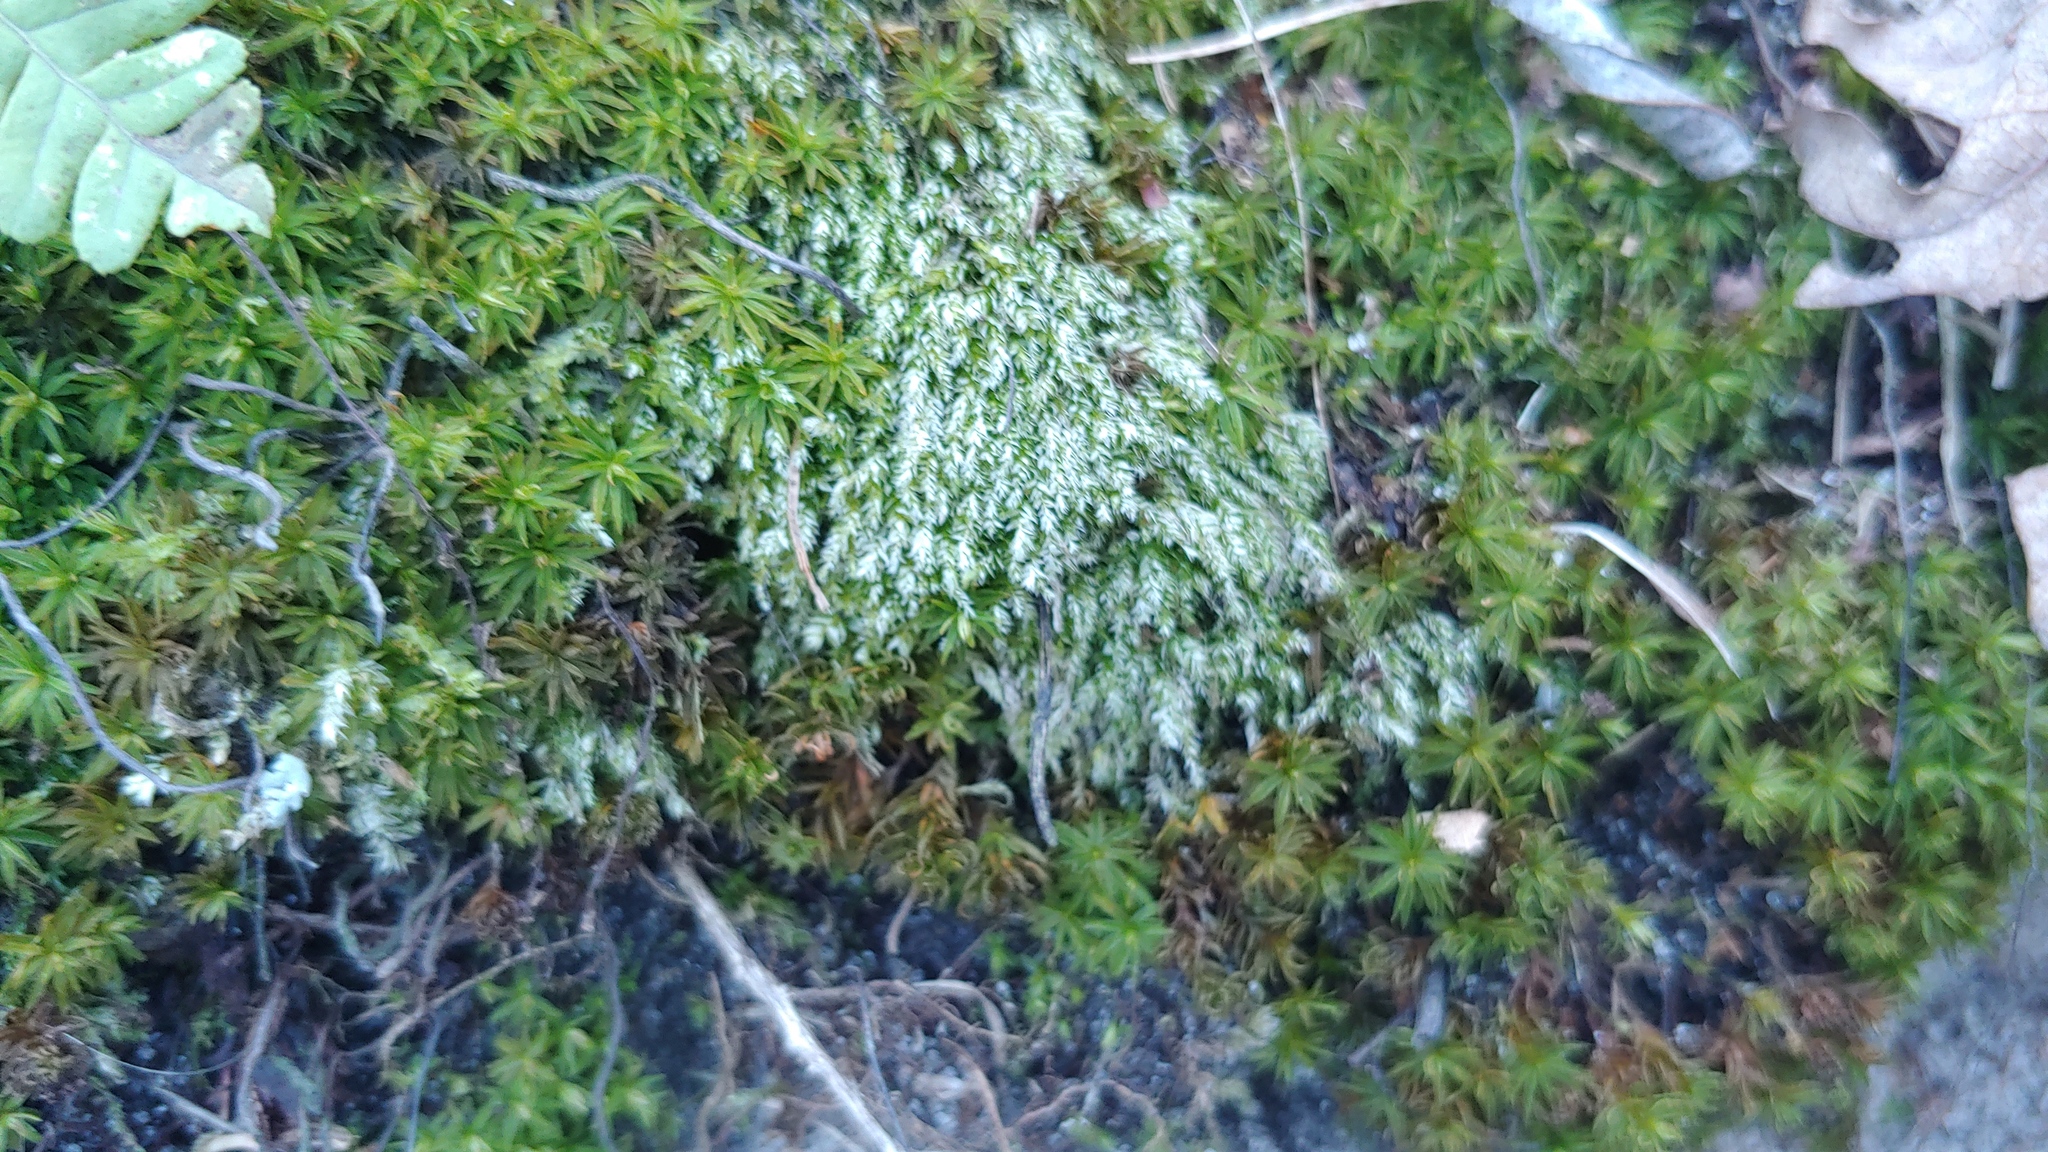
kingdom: Plantae
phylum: Bryophyta
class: Bryopsida
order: Bryales
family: Bryaceae
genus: Bryum
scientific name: Bryum argenteum
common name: Silver-moss
